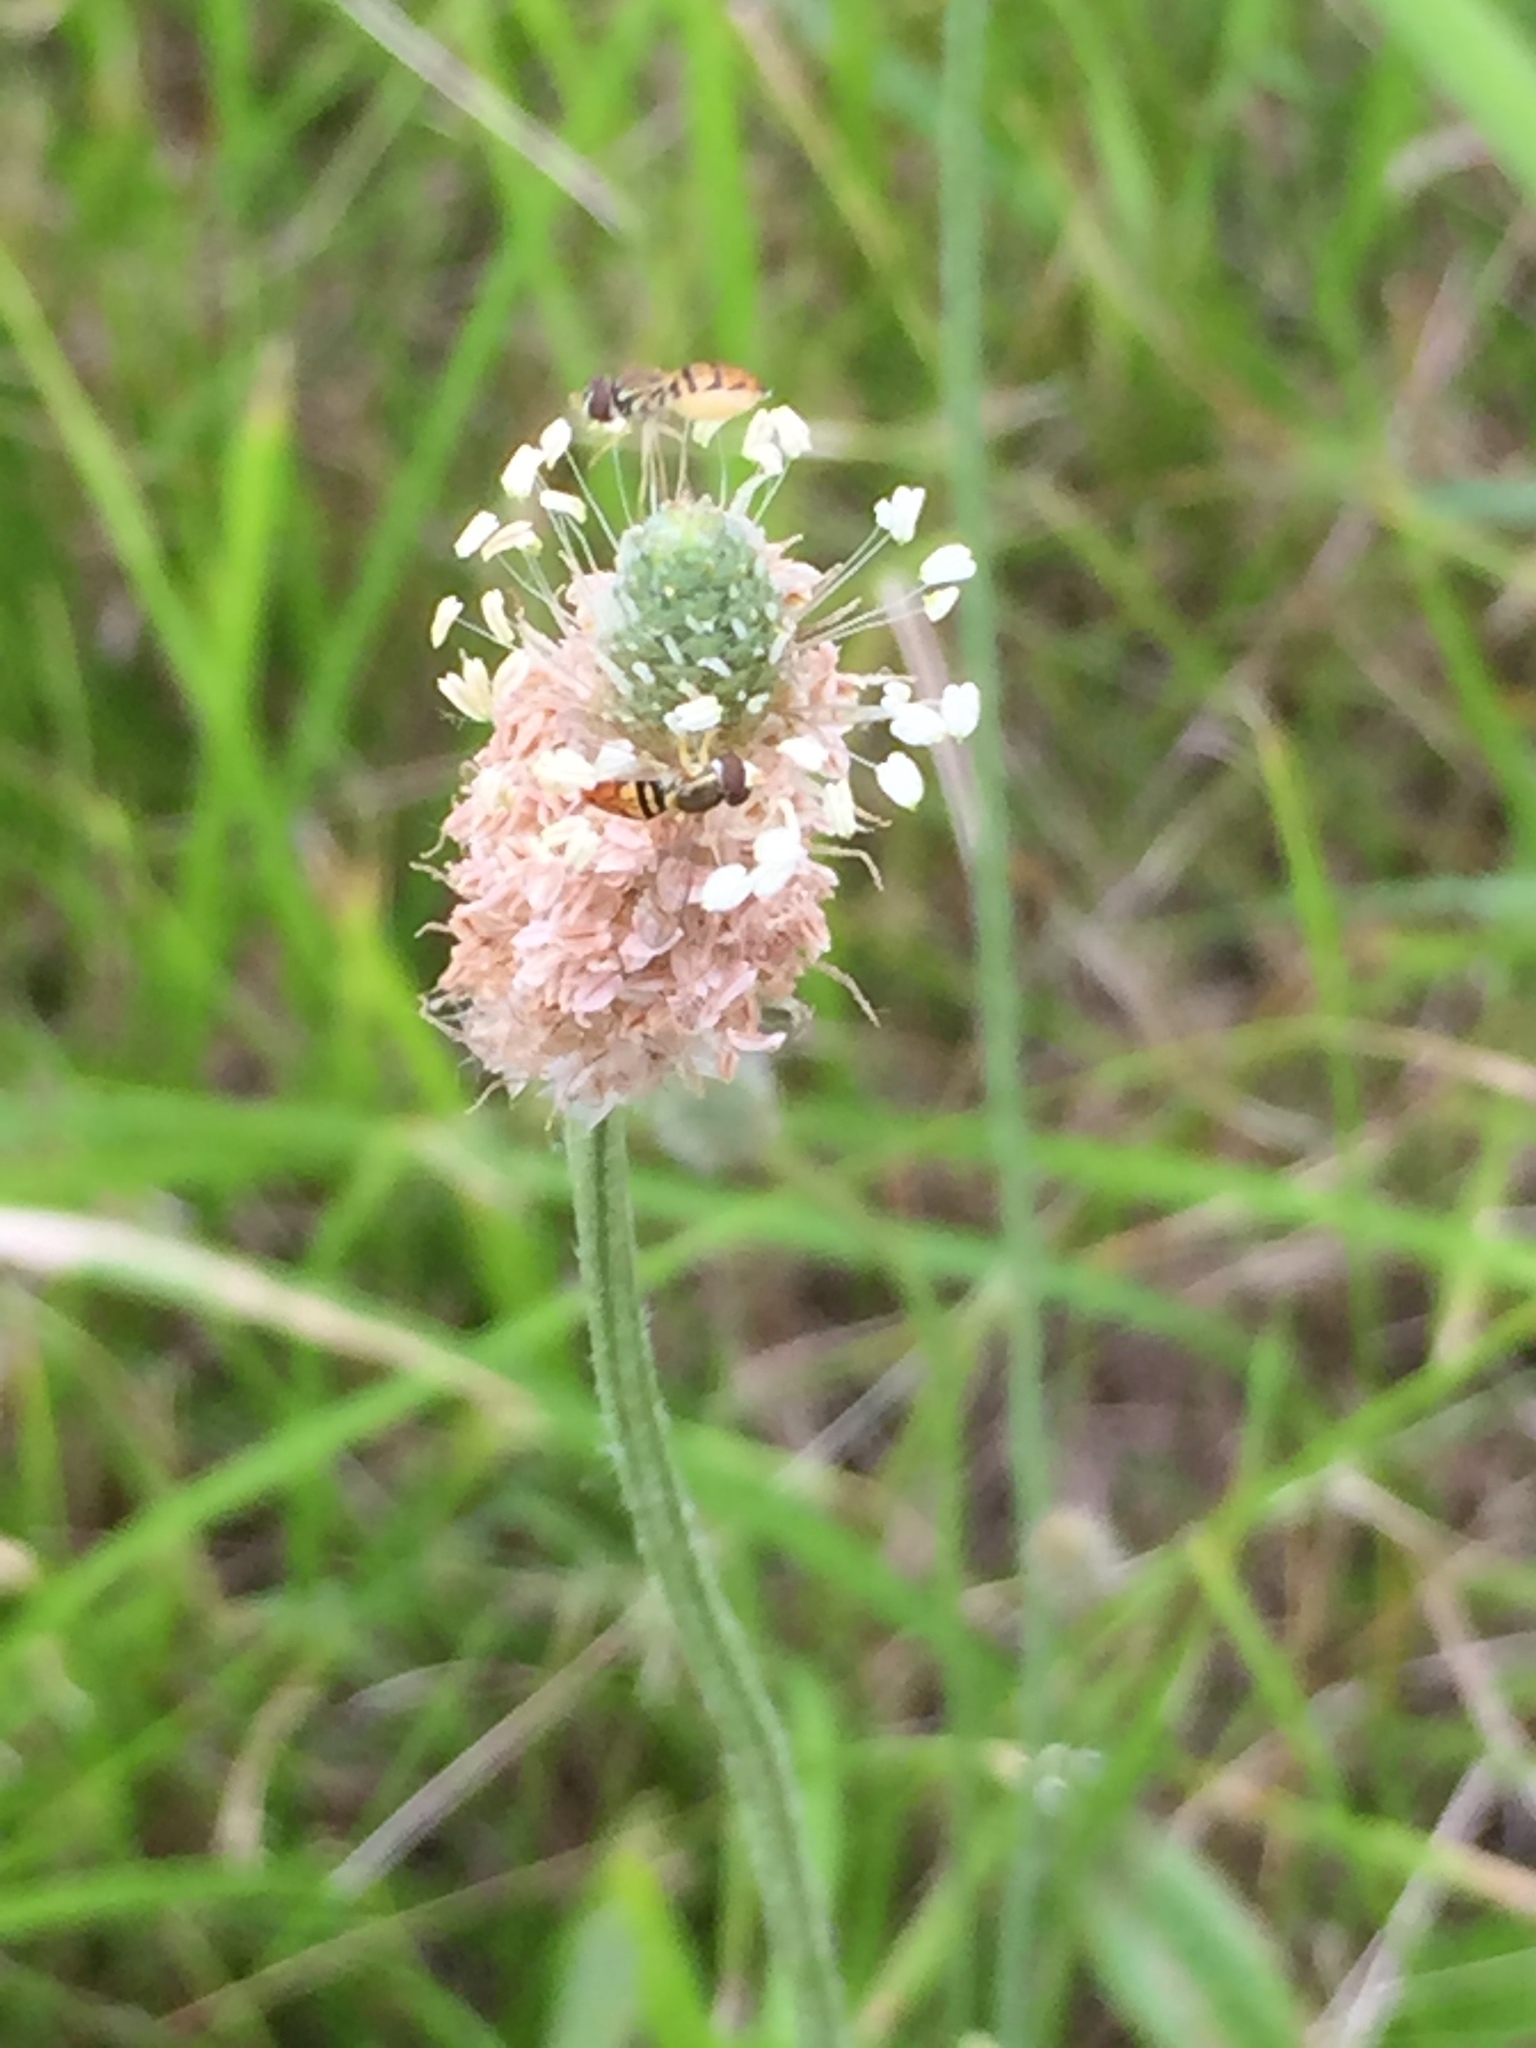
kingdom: Animalia
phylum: Arthropoda
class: Insecta
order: Diptera
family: Syrphidae
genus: Toxomerus
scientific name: Toxomerus marginatus
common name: Syrphid fly
